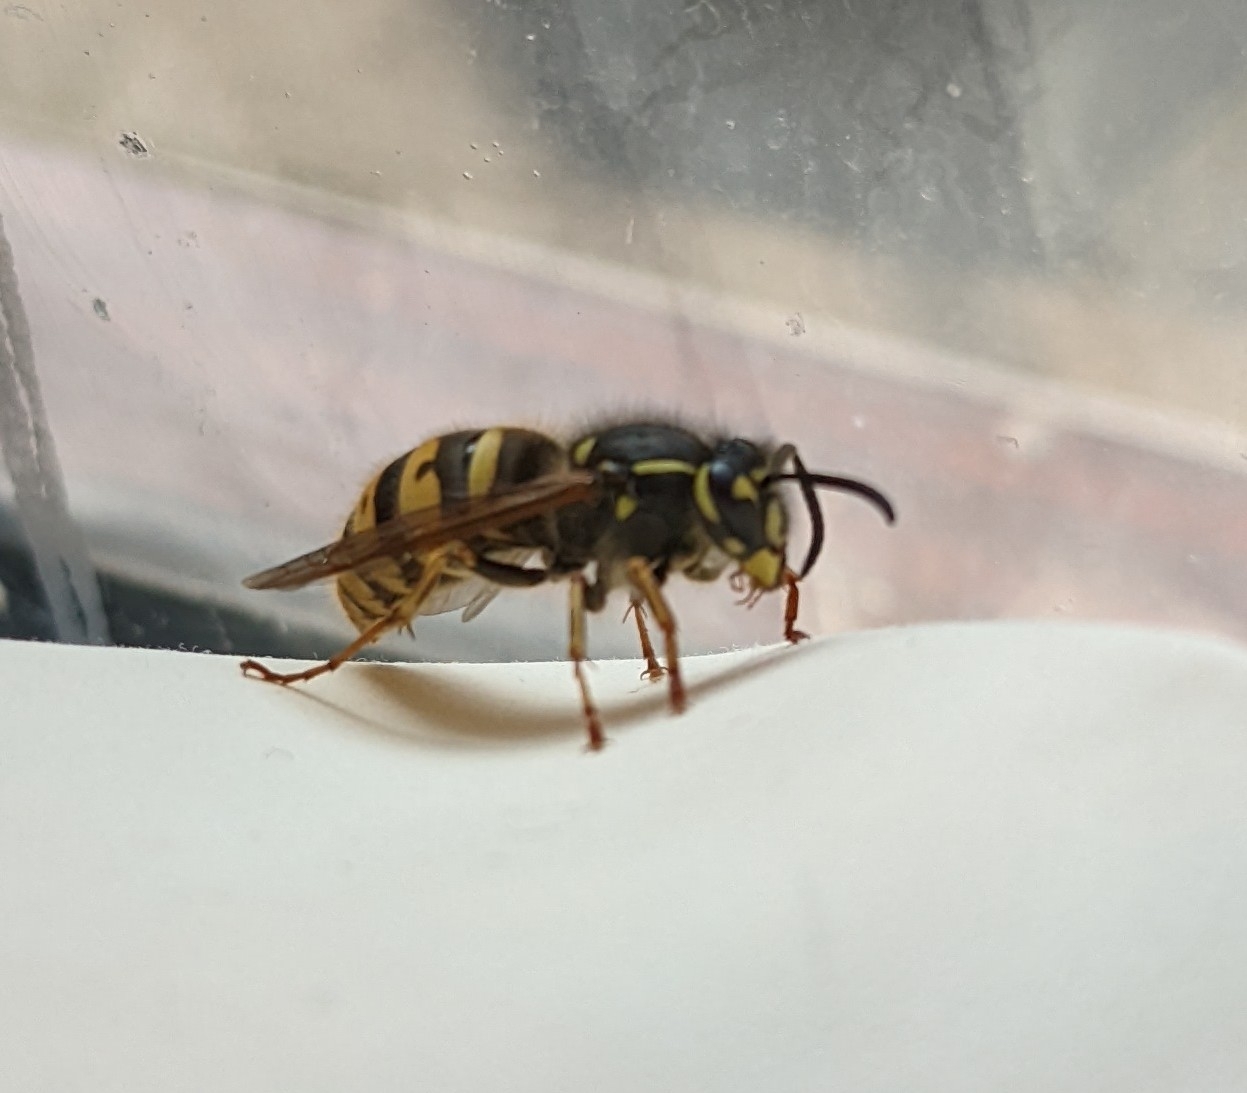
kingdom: Animalia
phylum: Arthropoda
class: Insecta
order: Hymenoptera
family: Vespidae
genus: Vespula
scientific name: Vespula vulgaris
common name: Common wasp
